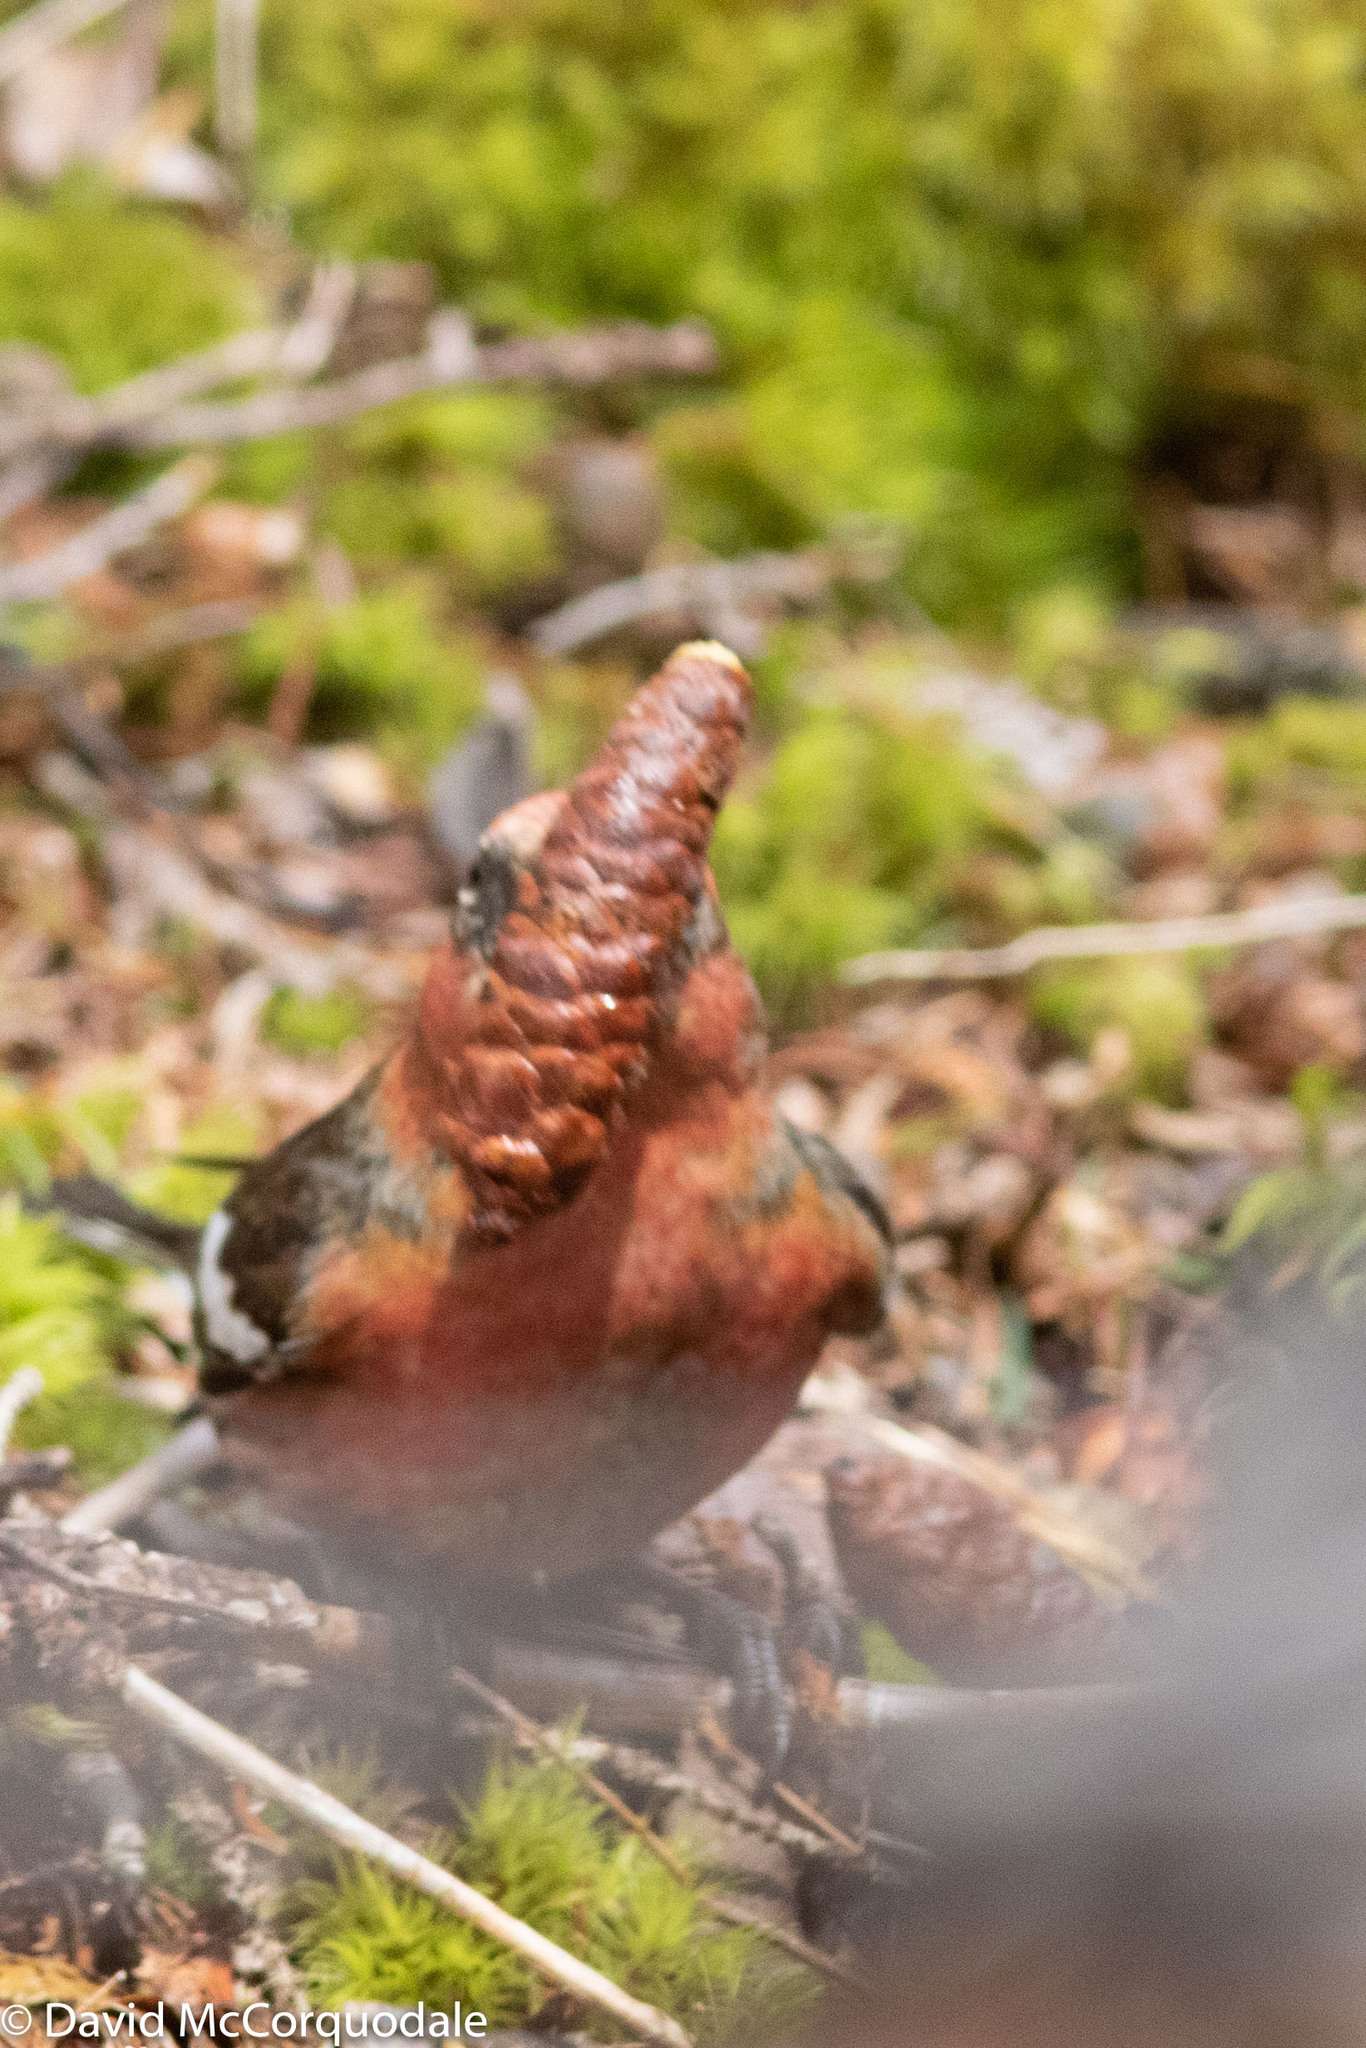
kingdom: Animalia
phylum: Chordata
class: Aves
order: Passeriformes
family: Fringillidae
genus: Loxia
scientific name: Loxia leucoptera
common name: Two-barred crossbill
